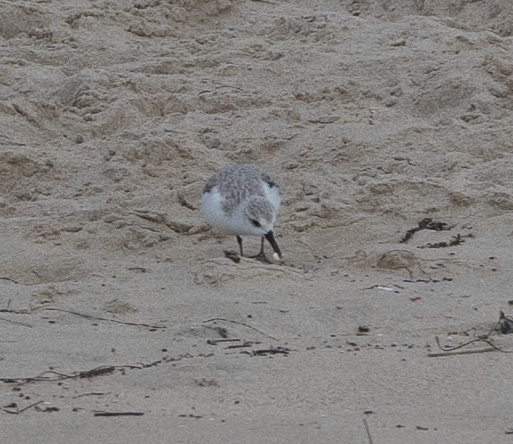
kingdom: Animalia
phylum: Chordata
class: Aves
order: Charadriiformes
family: Scolopacidae
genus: Calidris
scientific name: Calidris alba
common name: Sanderling
